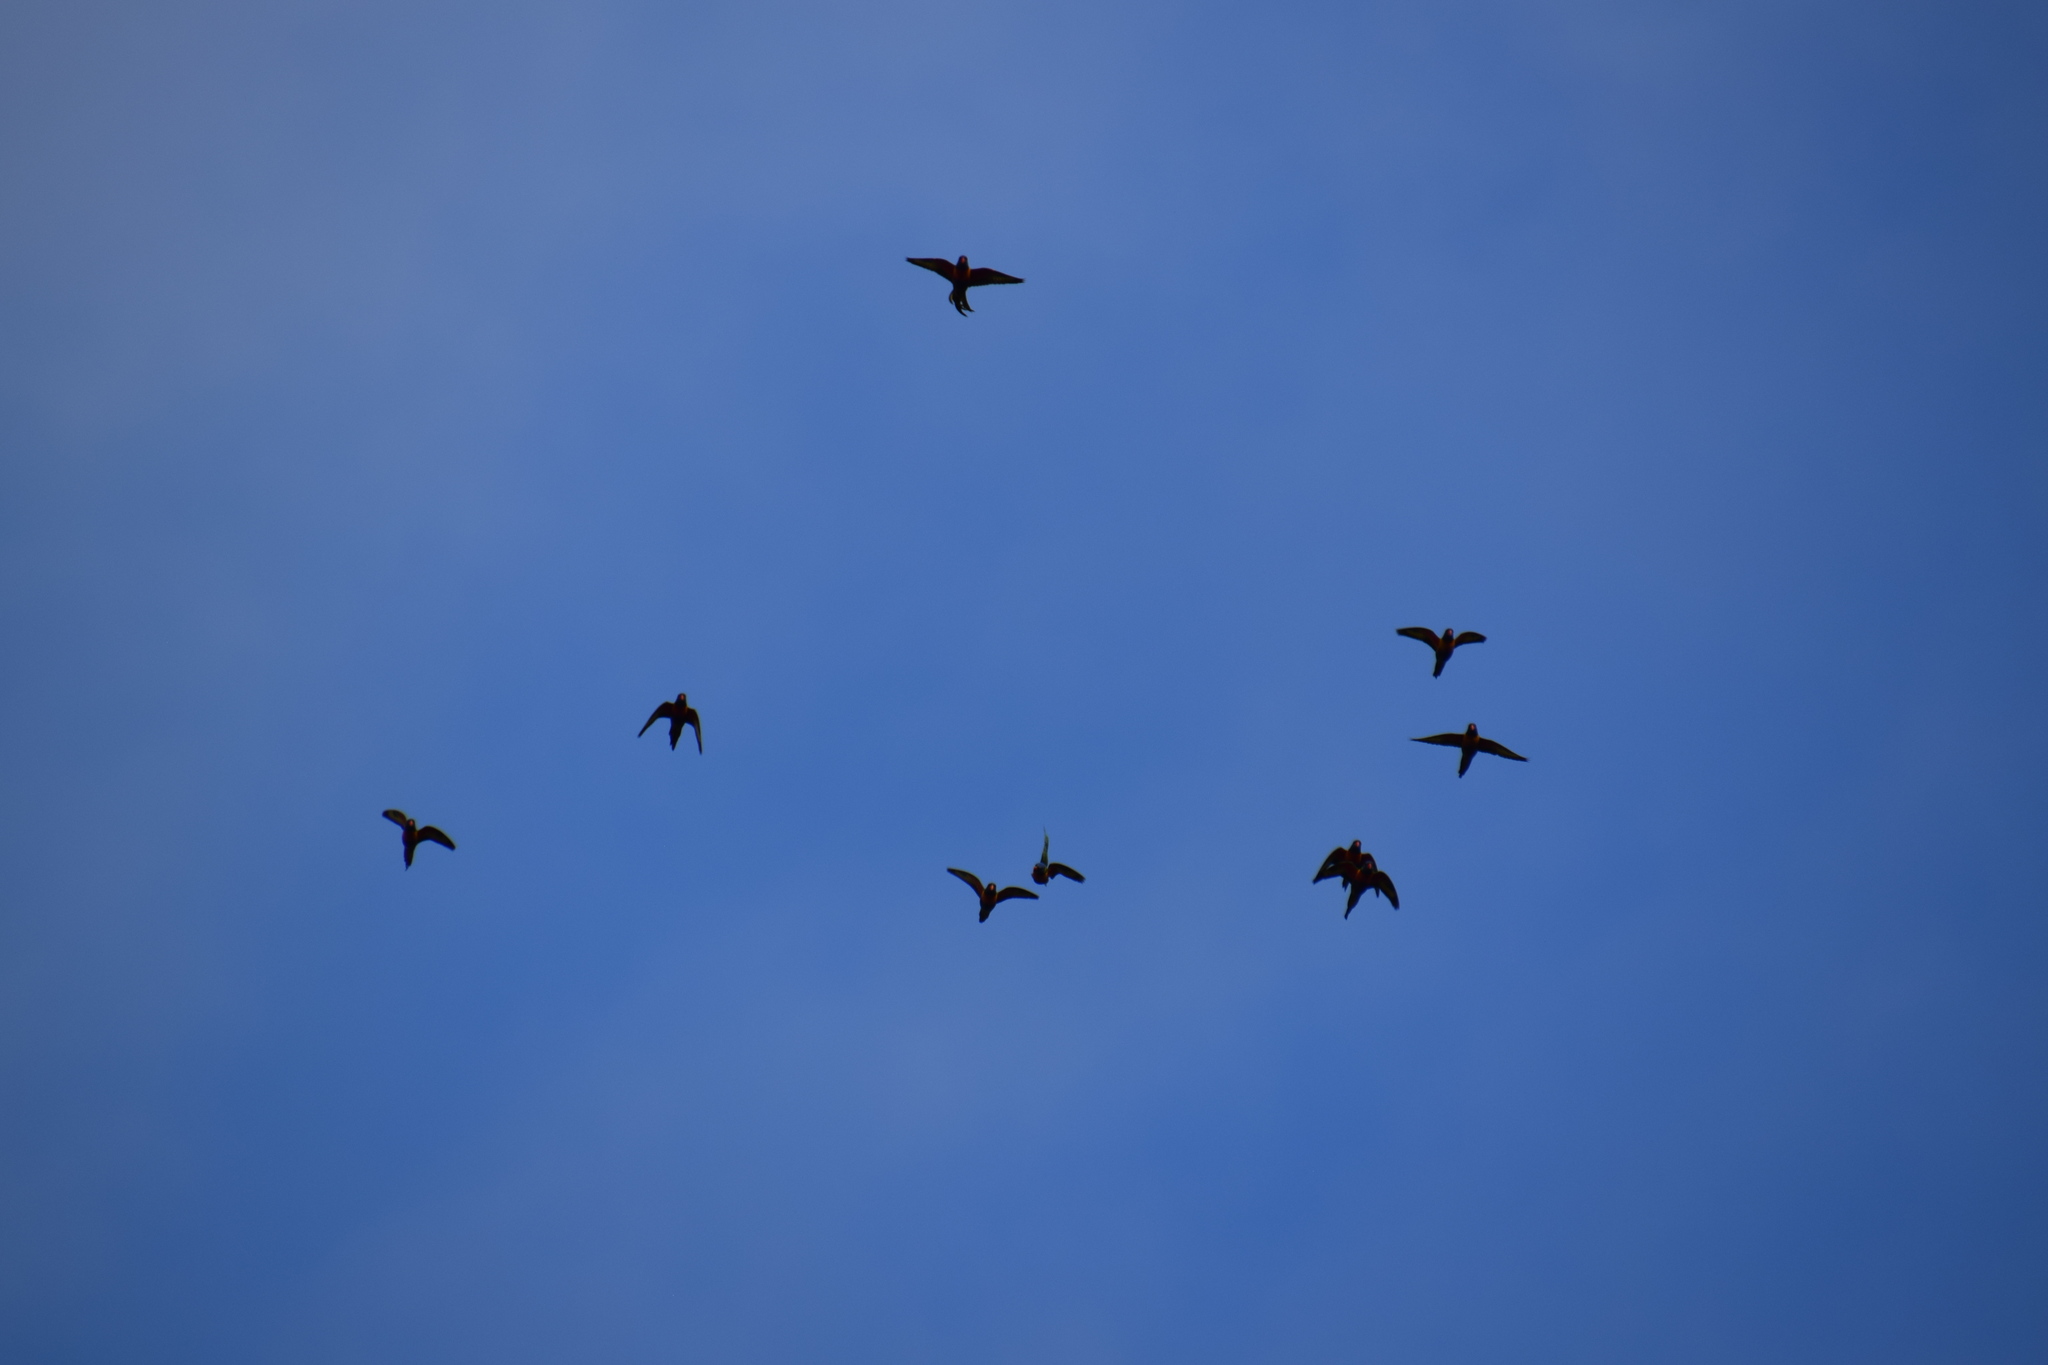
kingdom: Animalia
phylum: Chordata
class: Aves
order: Psittaciformes
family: Psittacidae
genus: Trichoglossus
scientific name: Trichoglossus haematodus
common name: Coconut lorikeet
